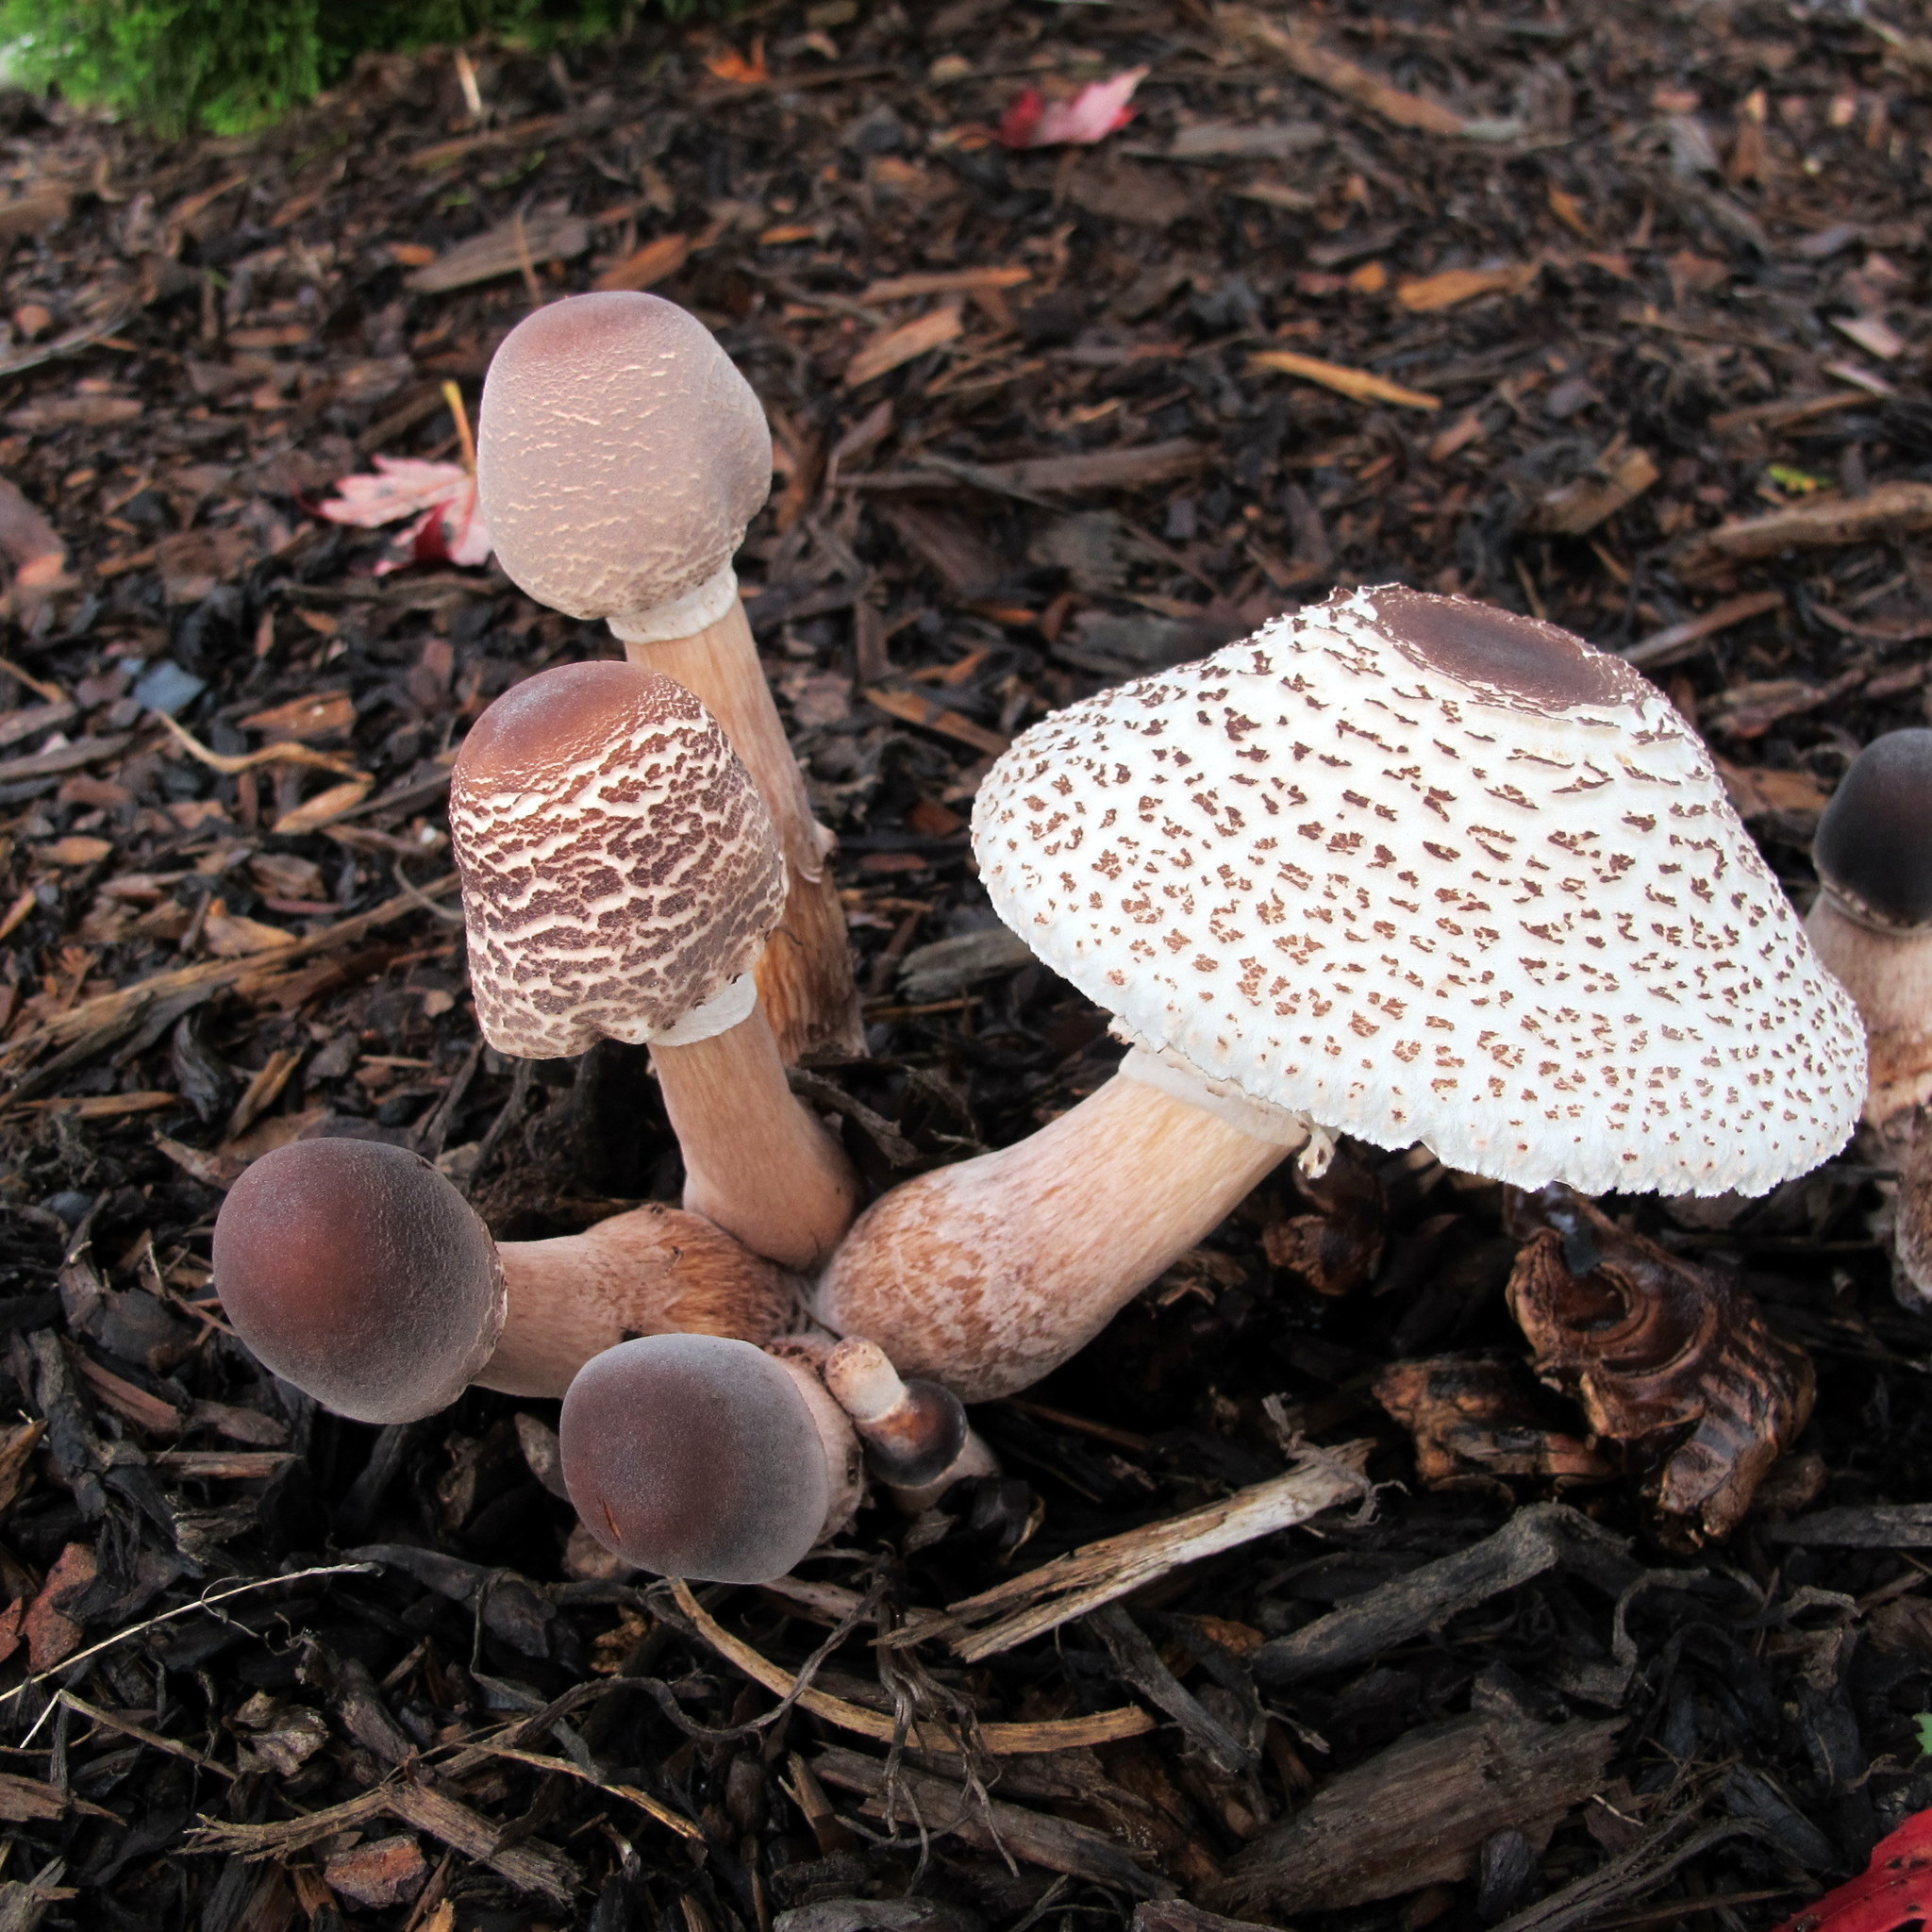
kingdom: Fungi
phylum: Basidiomycota
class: Agaricomycetes
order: Agaricales
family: Agaricaceae
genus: Leucoagaricus
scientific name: Leucoagaricus americanus
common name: Reddening lepiota
